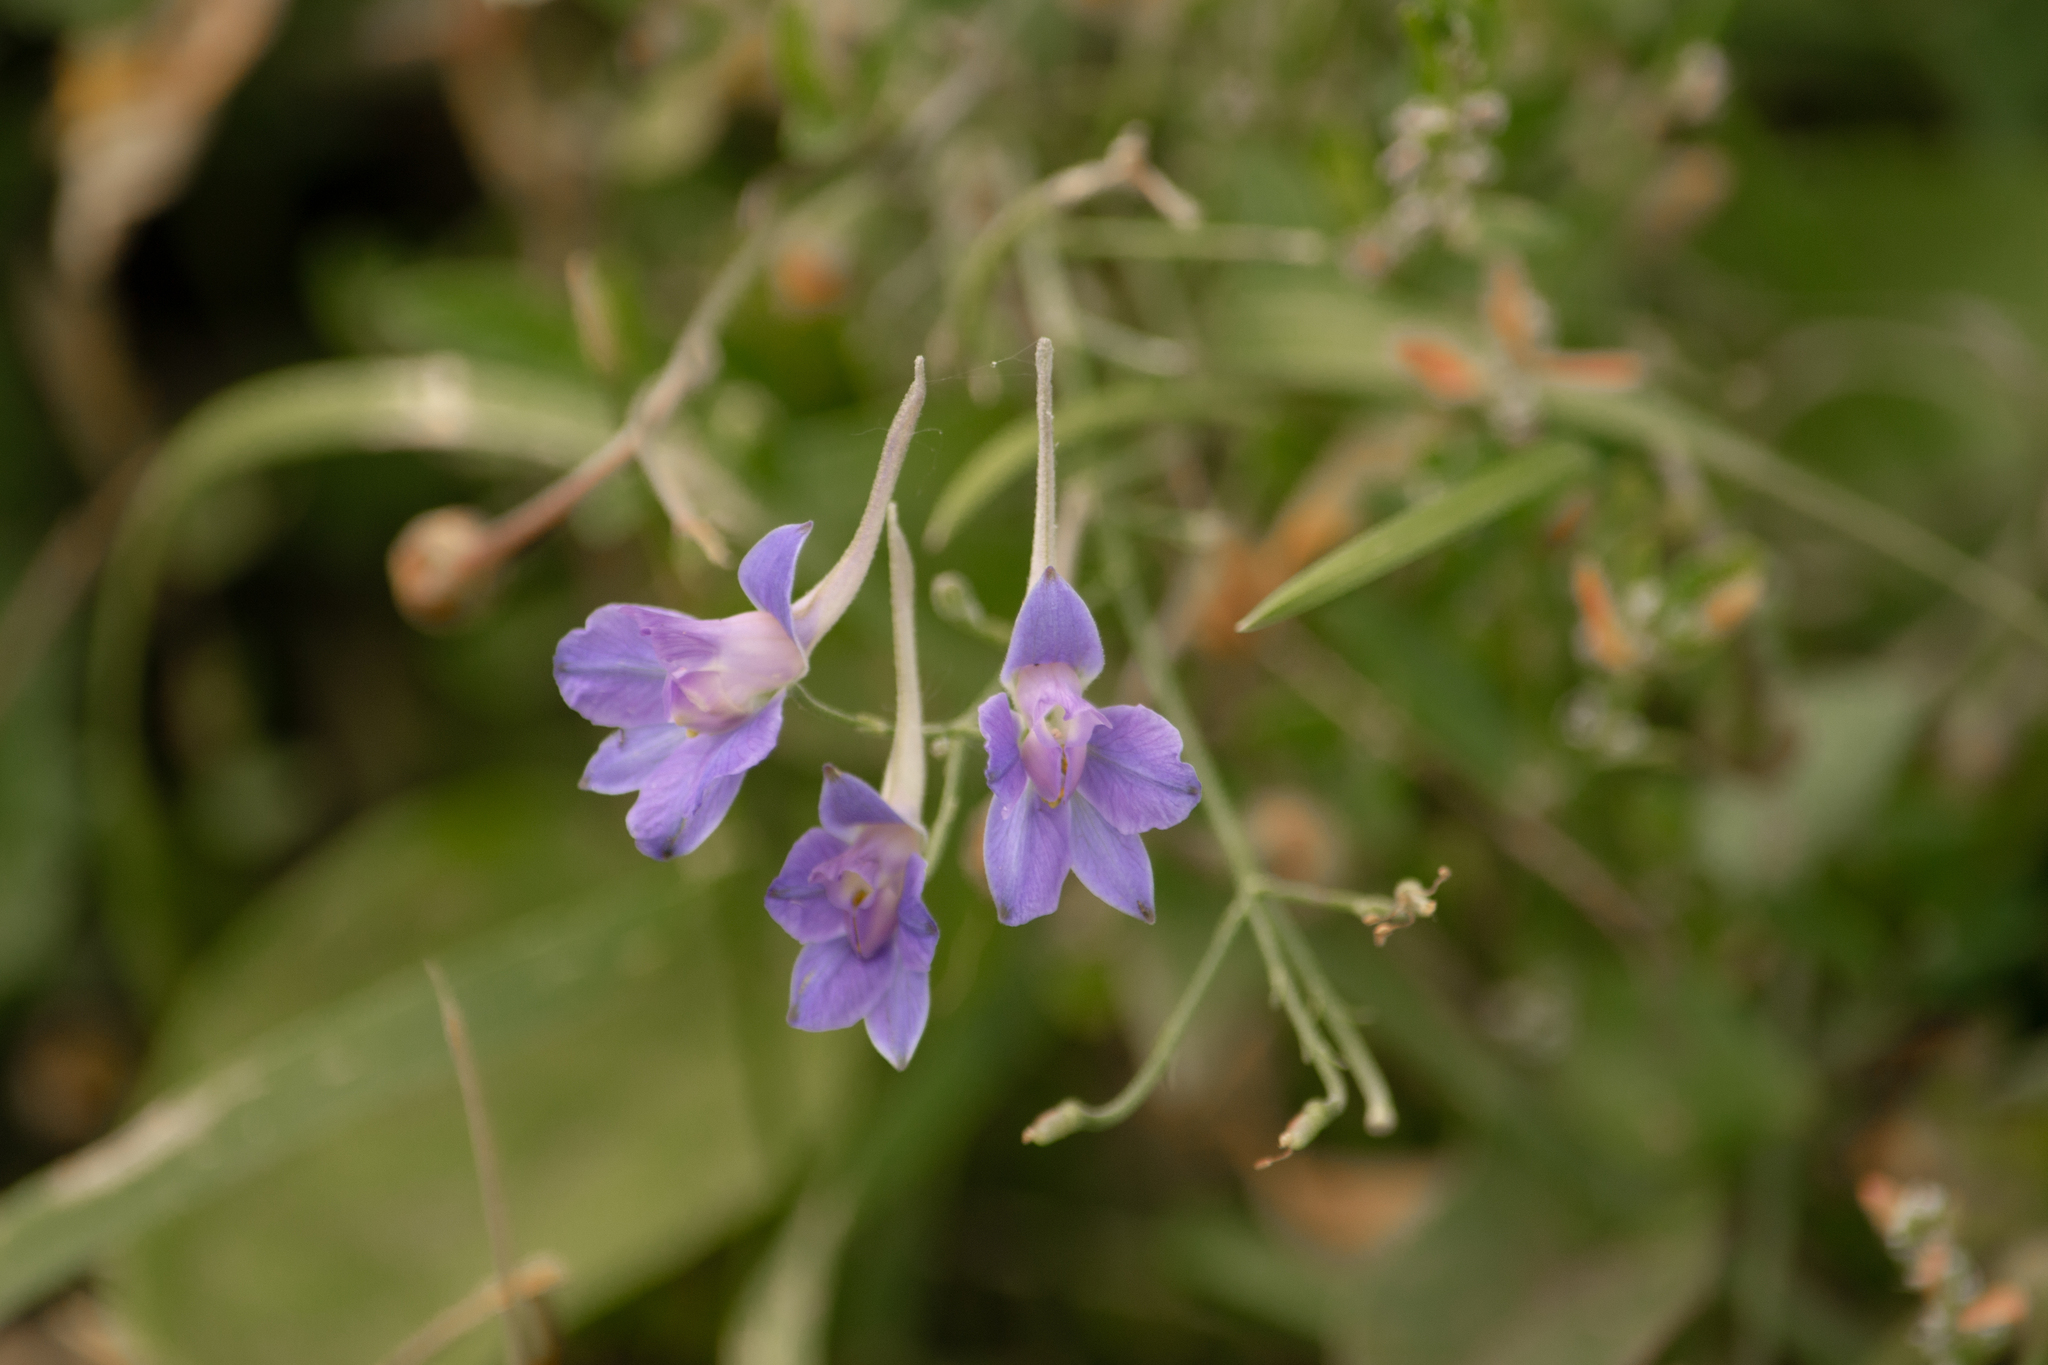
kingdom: Plantae
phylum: Tracheophyta
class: Magnoliopsida
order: Ranunculales
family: Ranunculaceae
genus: Delphinium
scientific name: Delphinium consolida
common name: Branching larkspur
